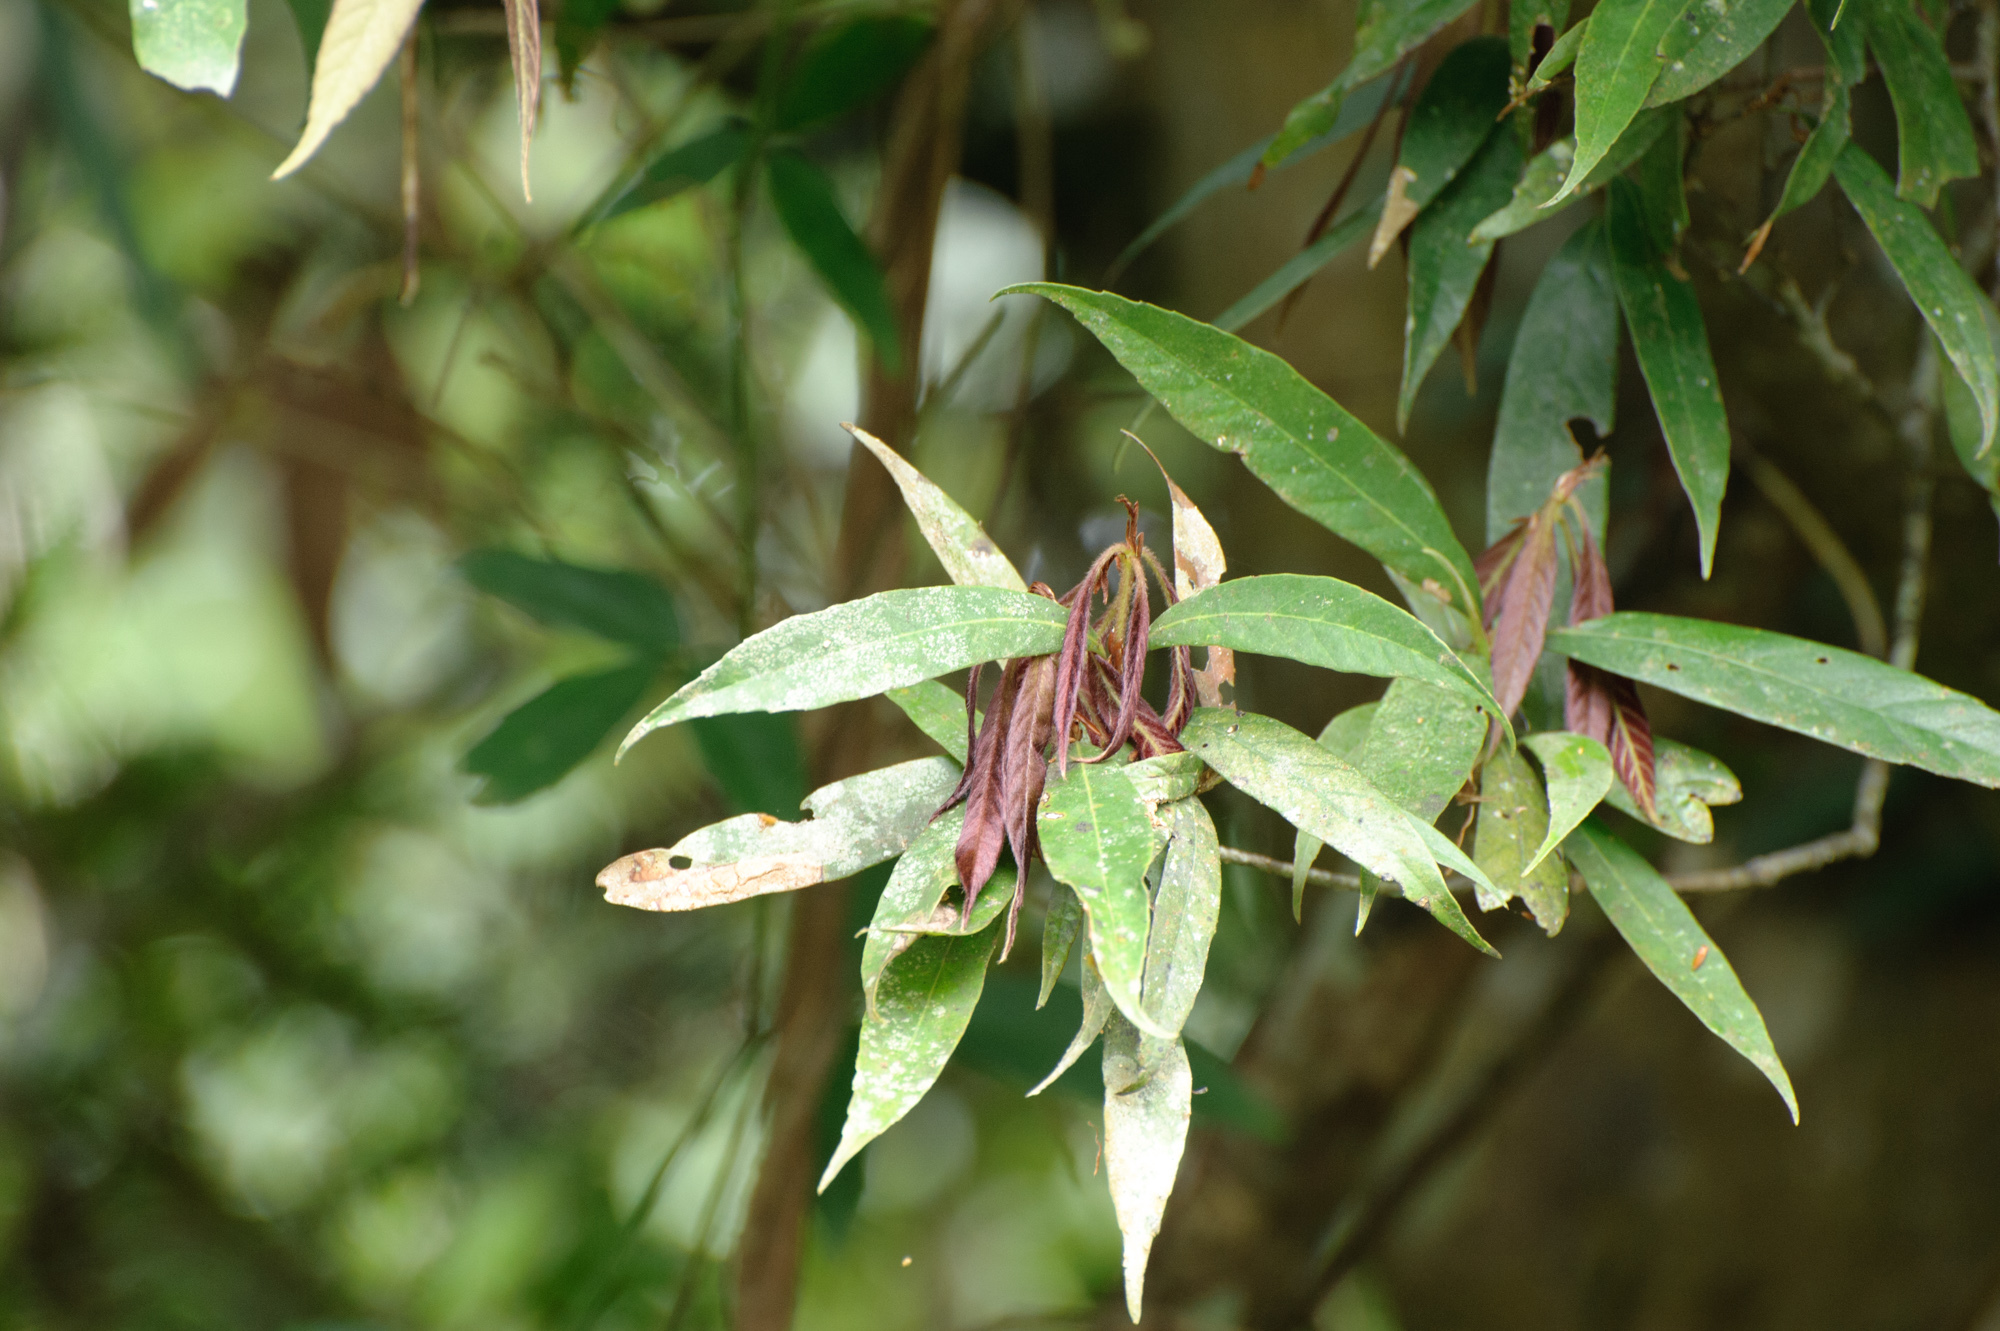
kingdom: Plantae
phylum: Tracheophyta
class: Magnoliopsida
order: Fagales
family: Fagaceae
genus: Quercus
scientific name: Quercus pachyloma
